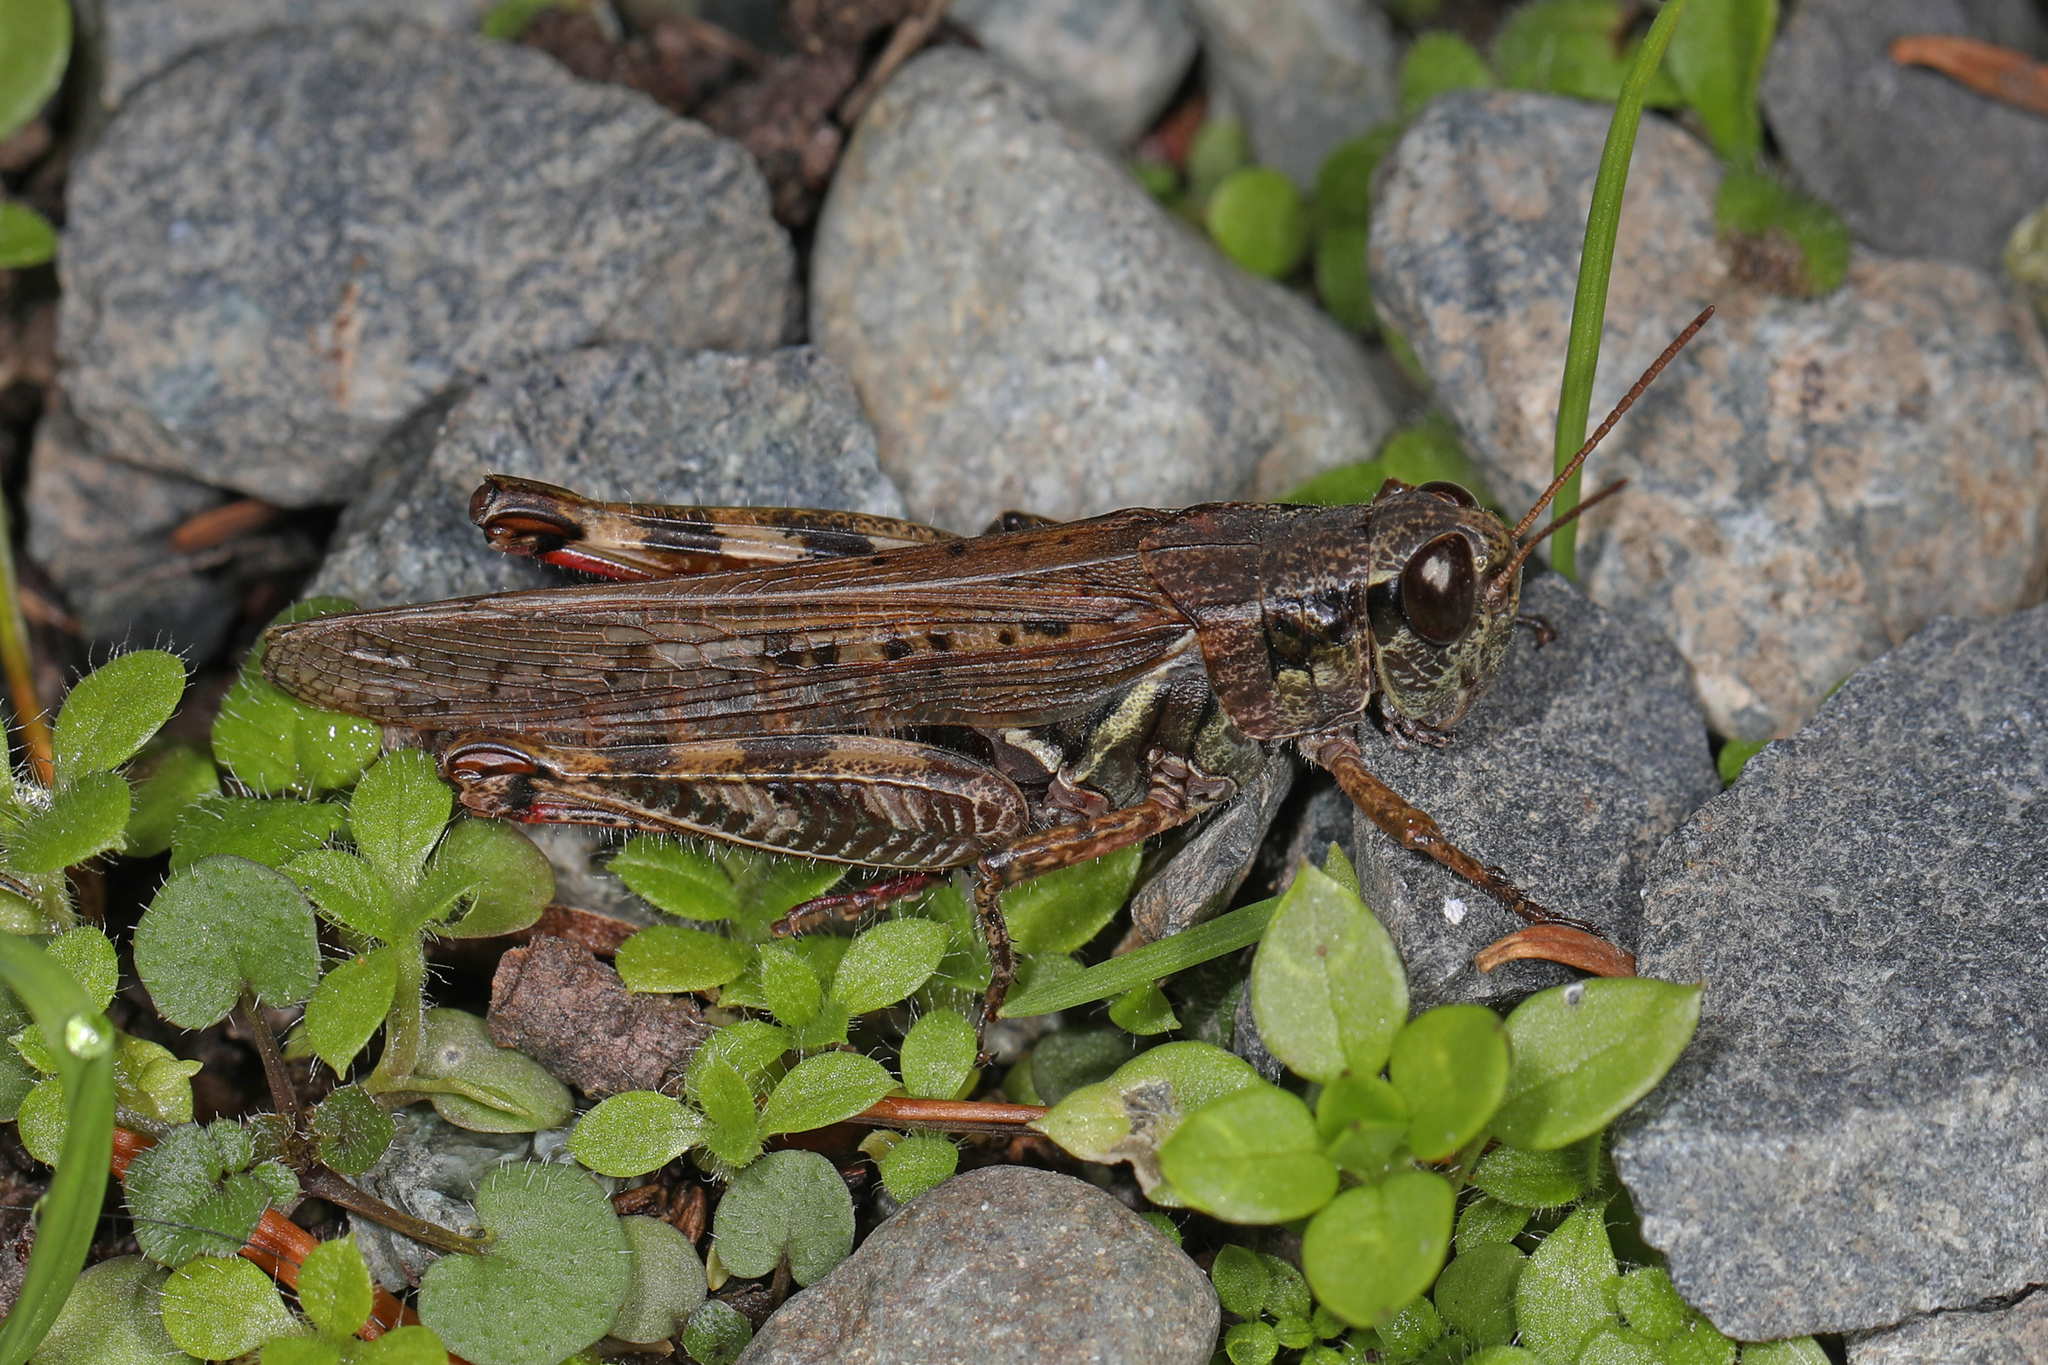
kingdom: Animalia
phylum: Arthropoda
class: Insecta
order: Orthoptera
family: Acrididae
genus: Melanoplus
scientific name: Melanoplus sanguinipes
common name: Migratory grasshopper
